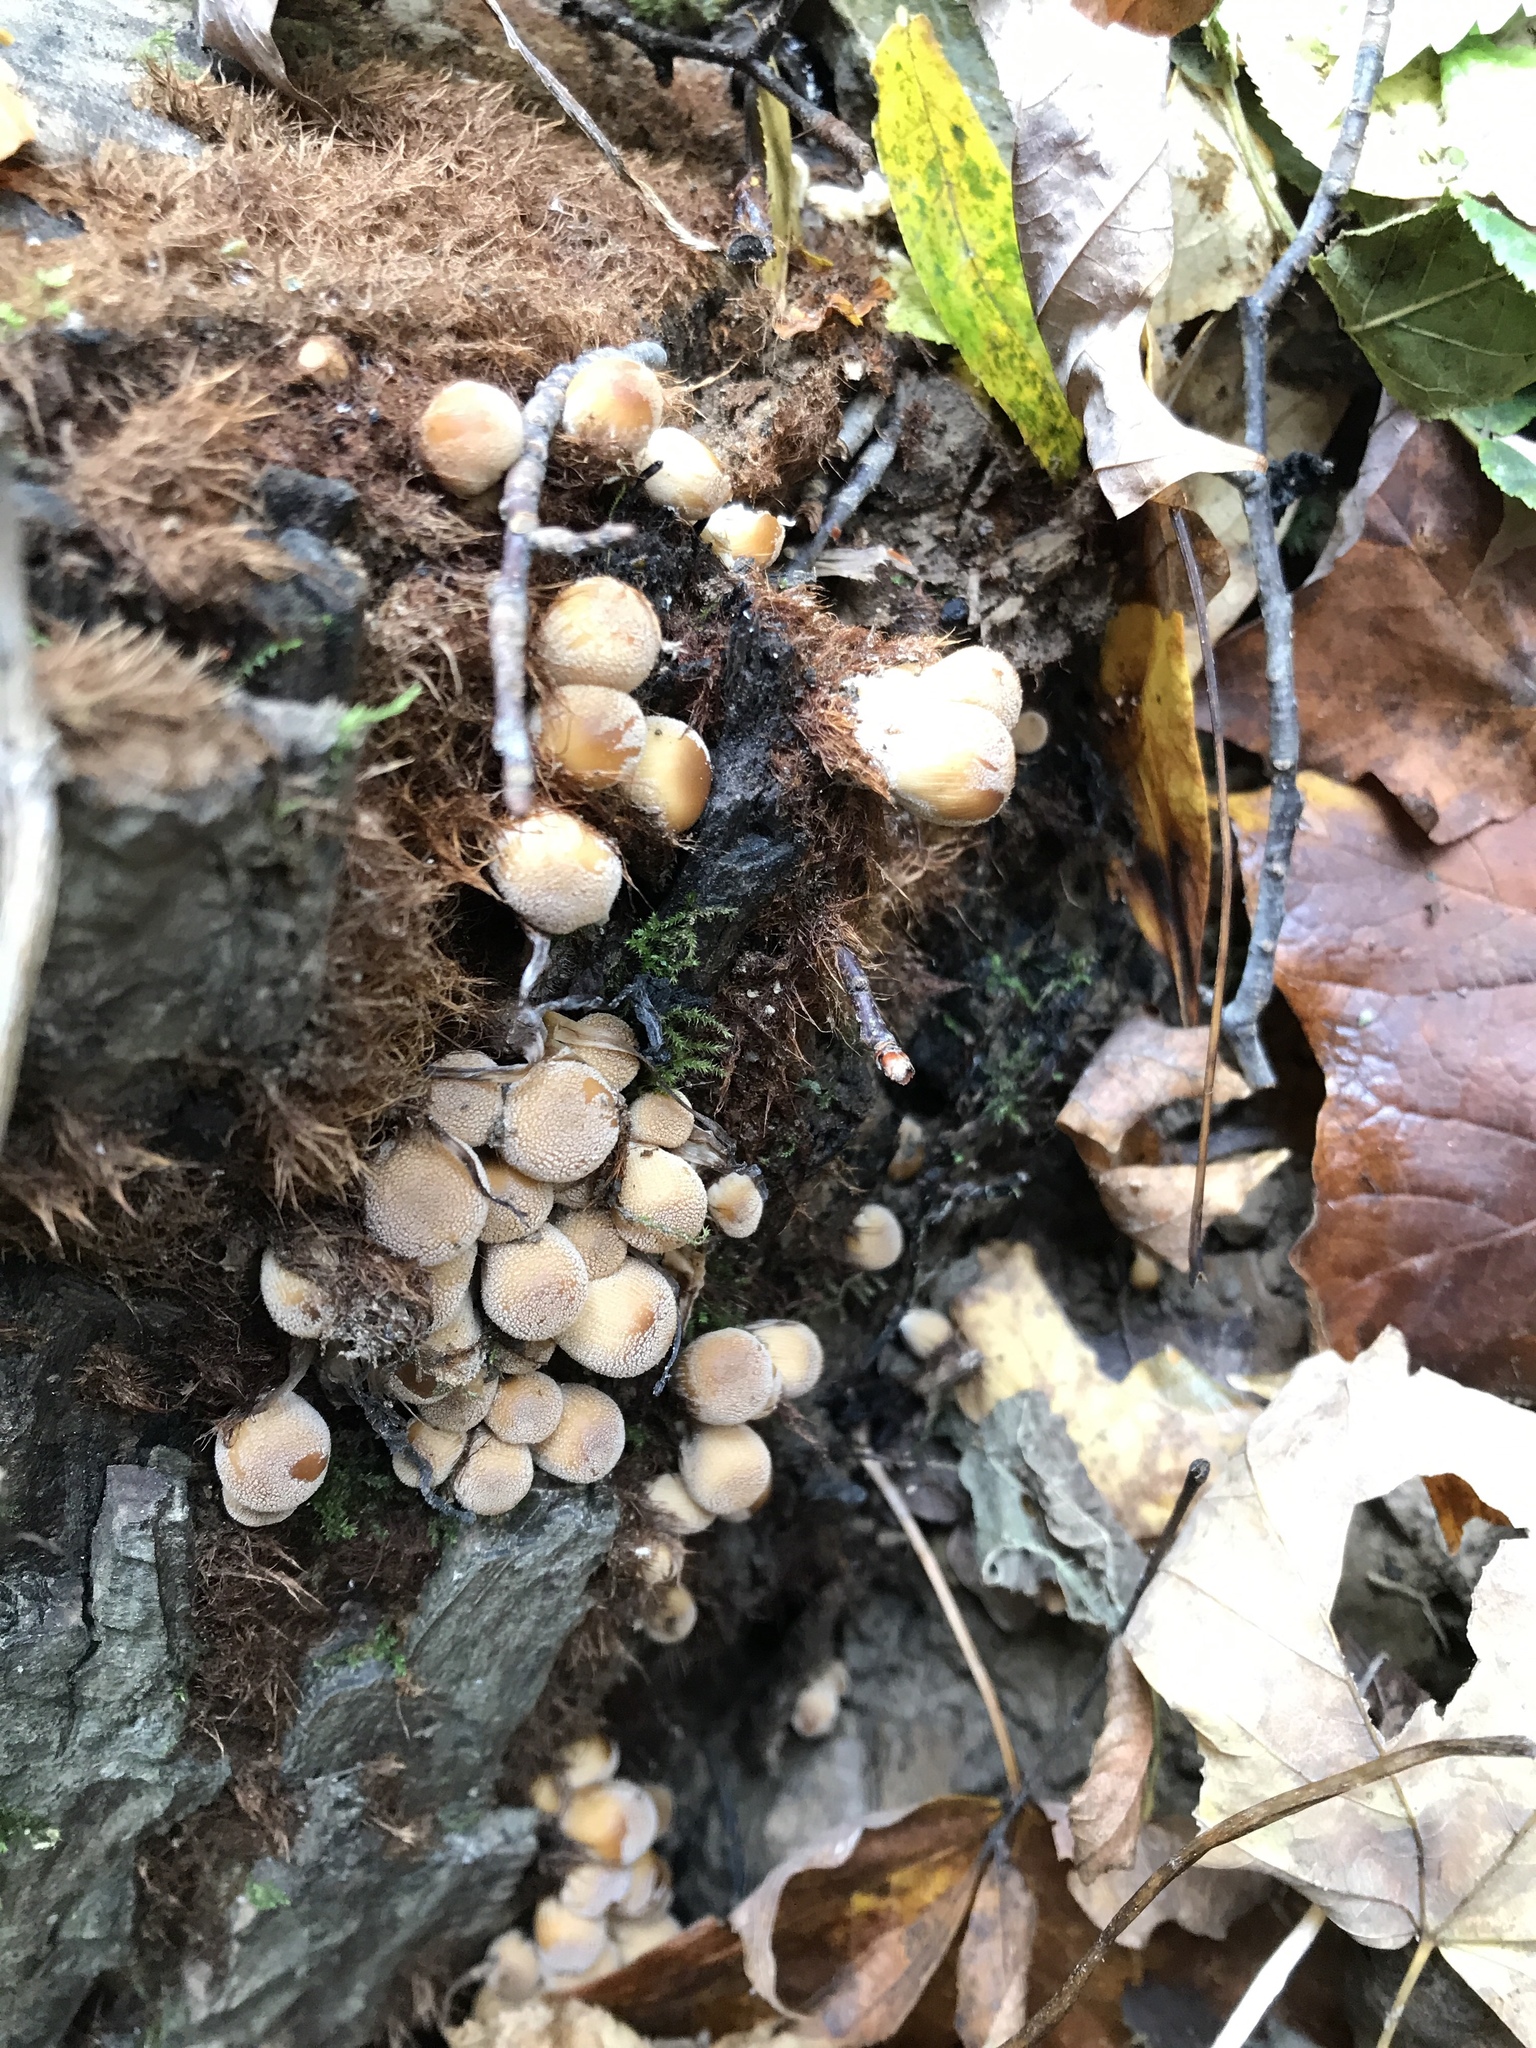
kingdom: Fungi
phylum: Basidiomycota
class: Agaricomycetes
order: Agaricales
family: Psathyrellaceae
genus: Coprinellus
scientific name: Coprinellus micaceus
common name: Glistening ink-cap
